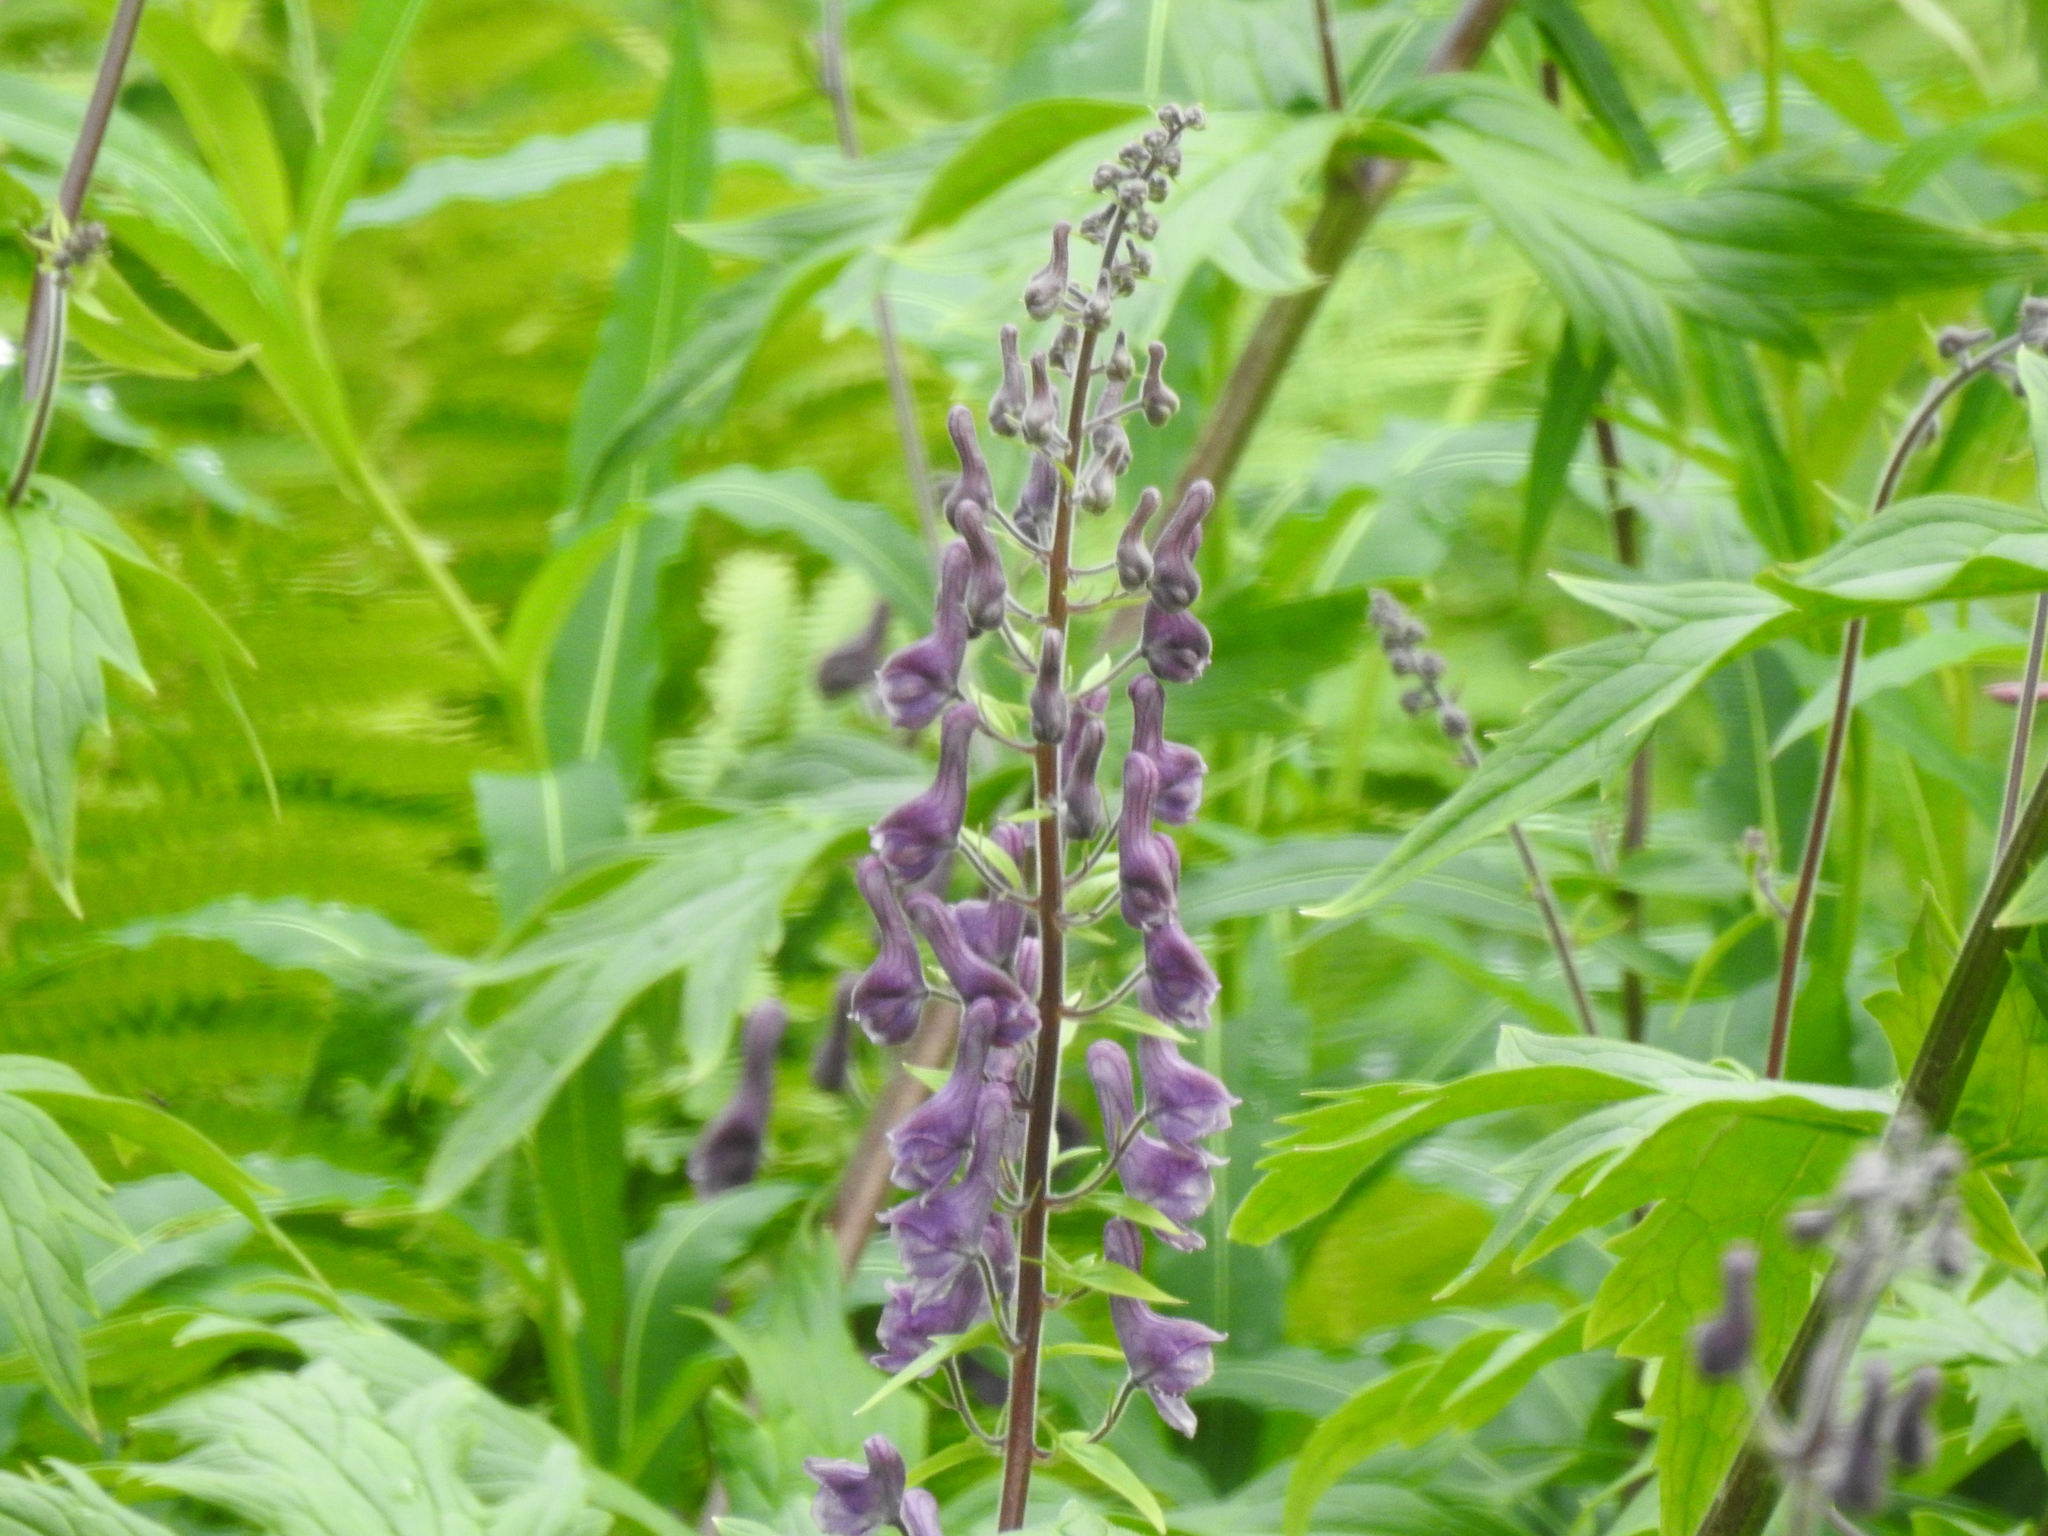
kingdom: Plantae
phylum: Tracheophyta
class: Magnoliopsida
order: Ranunculales
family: Ranunculaceae
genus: Aconitum
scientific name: Aconitum septentrionale
